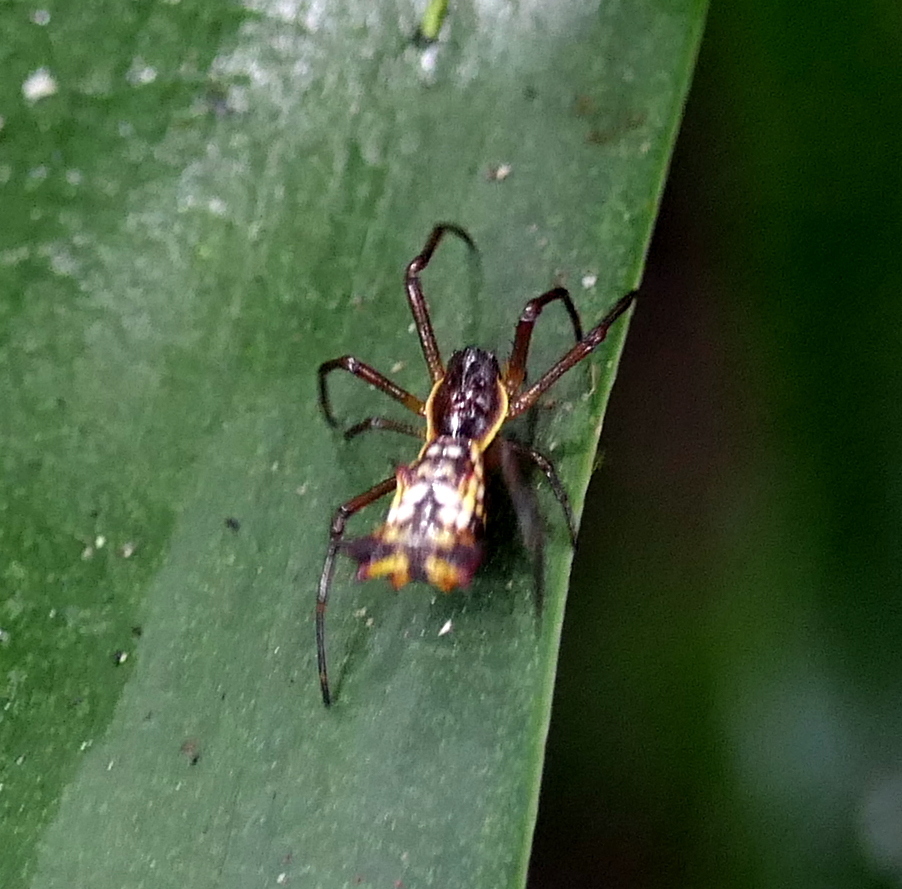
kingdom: Animalia
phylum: Arthropoda
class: Arachnida
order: Araneae
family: Araneidae
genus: Micrathena
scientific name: Micrathena fissispina
